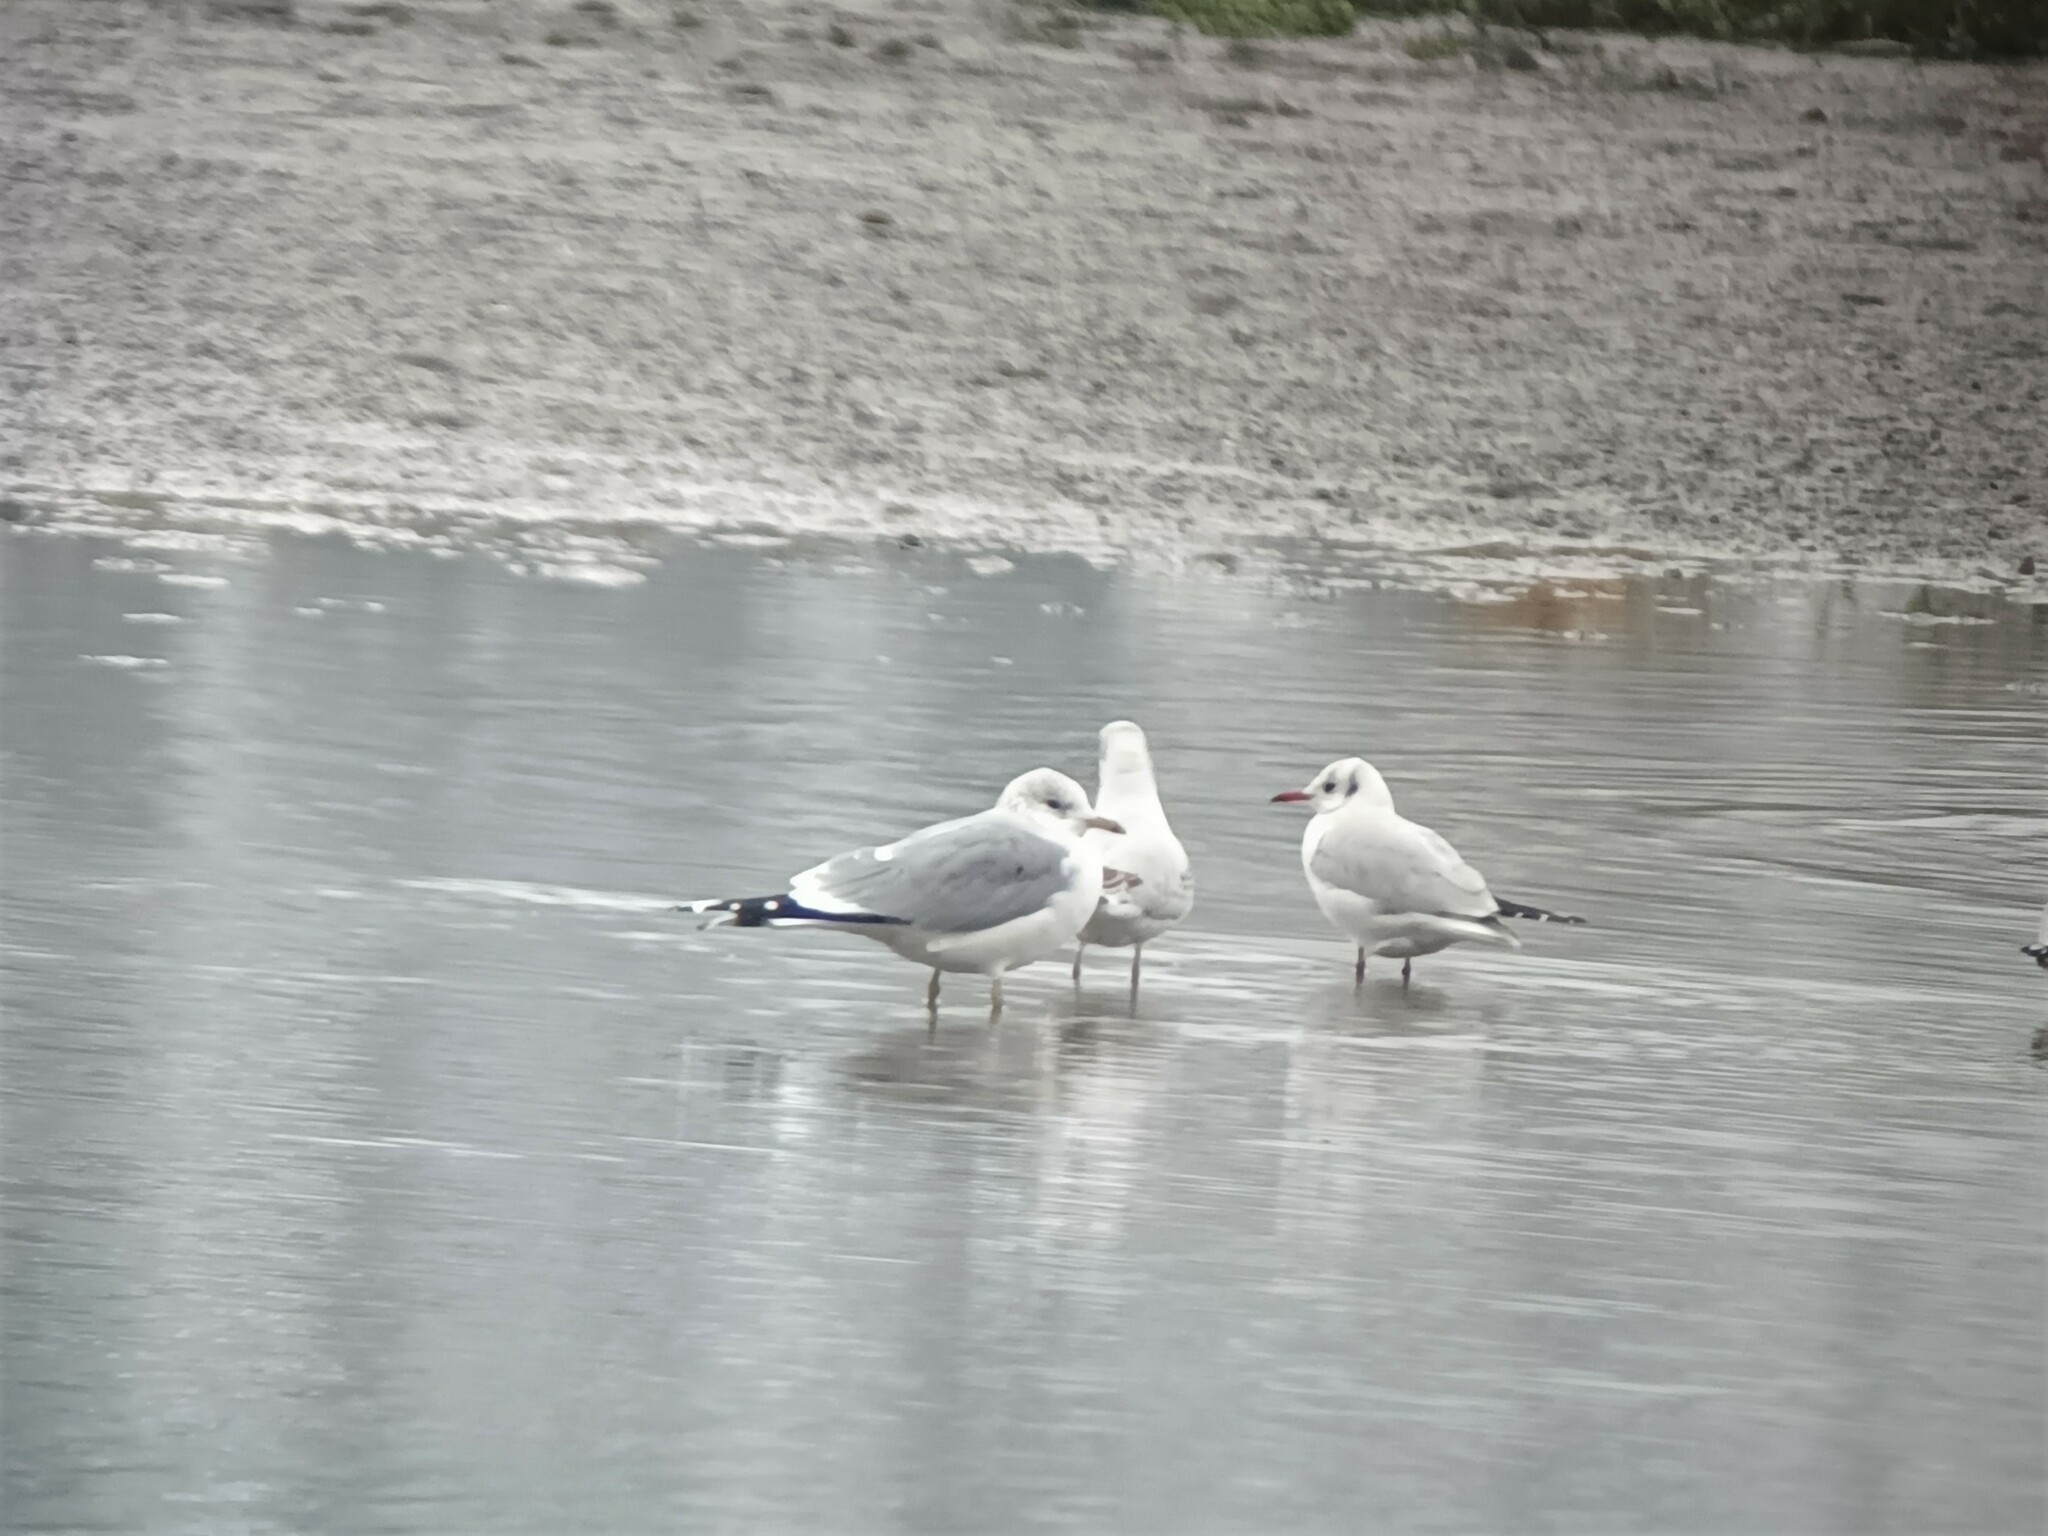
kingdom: Animalia
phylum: Chordata
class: Aves
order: Charadriiformes
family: Laridae
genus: Larus
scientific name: Larus canus
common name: Mew gull
